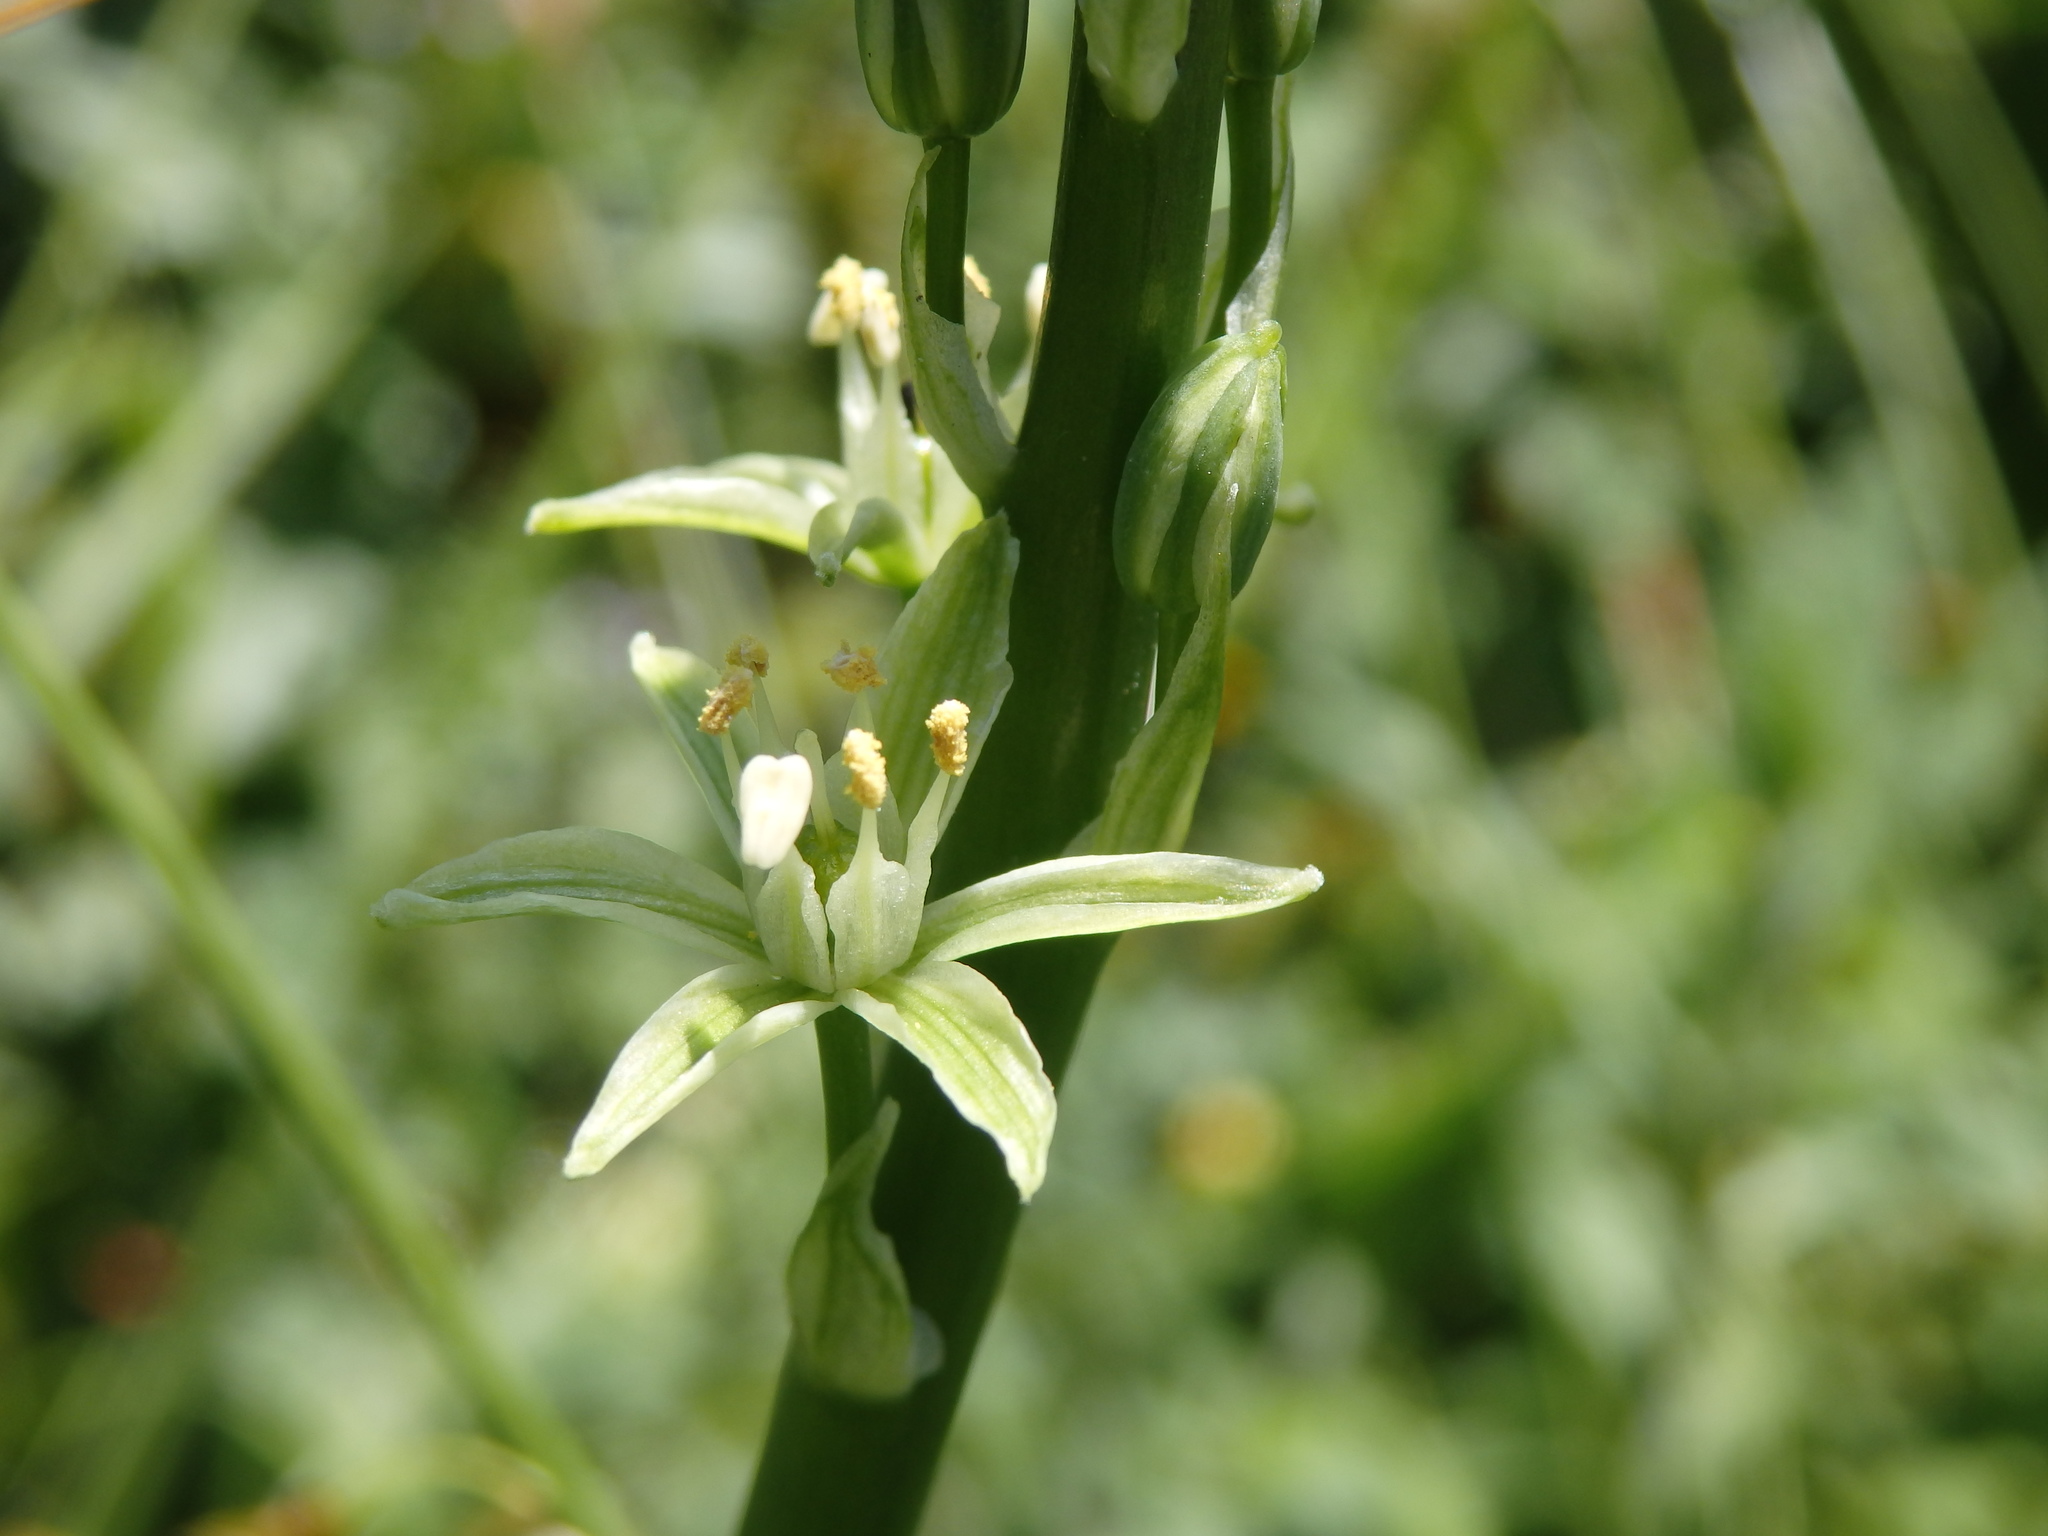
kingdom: Plantae
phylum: Tracheophyta
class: Liliopsida
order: Asparagales
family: Asparagaceae
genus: Ornithogalum
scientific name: Ornithogalum pyrenaicum
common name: Spiked star-of-bethlehem
